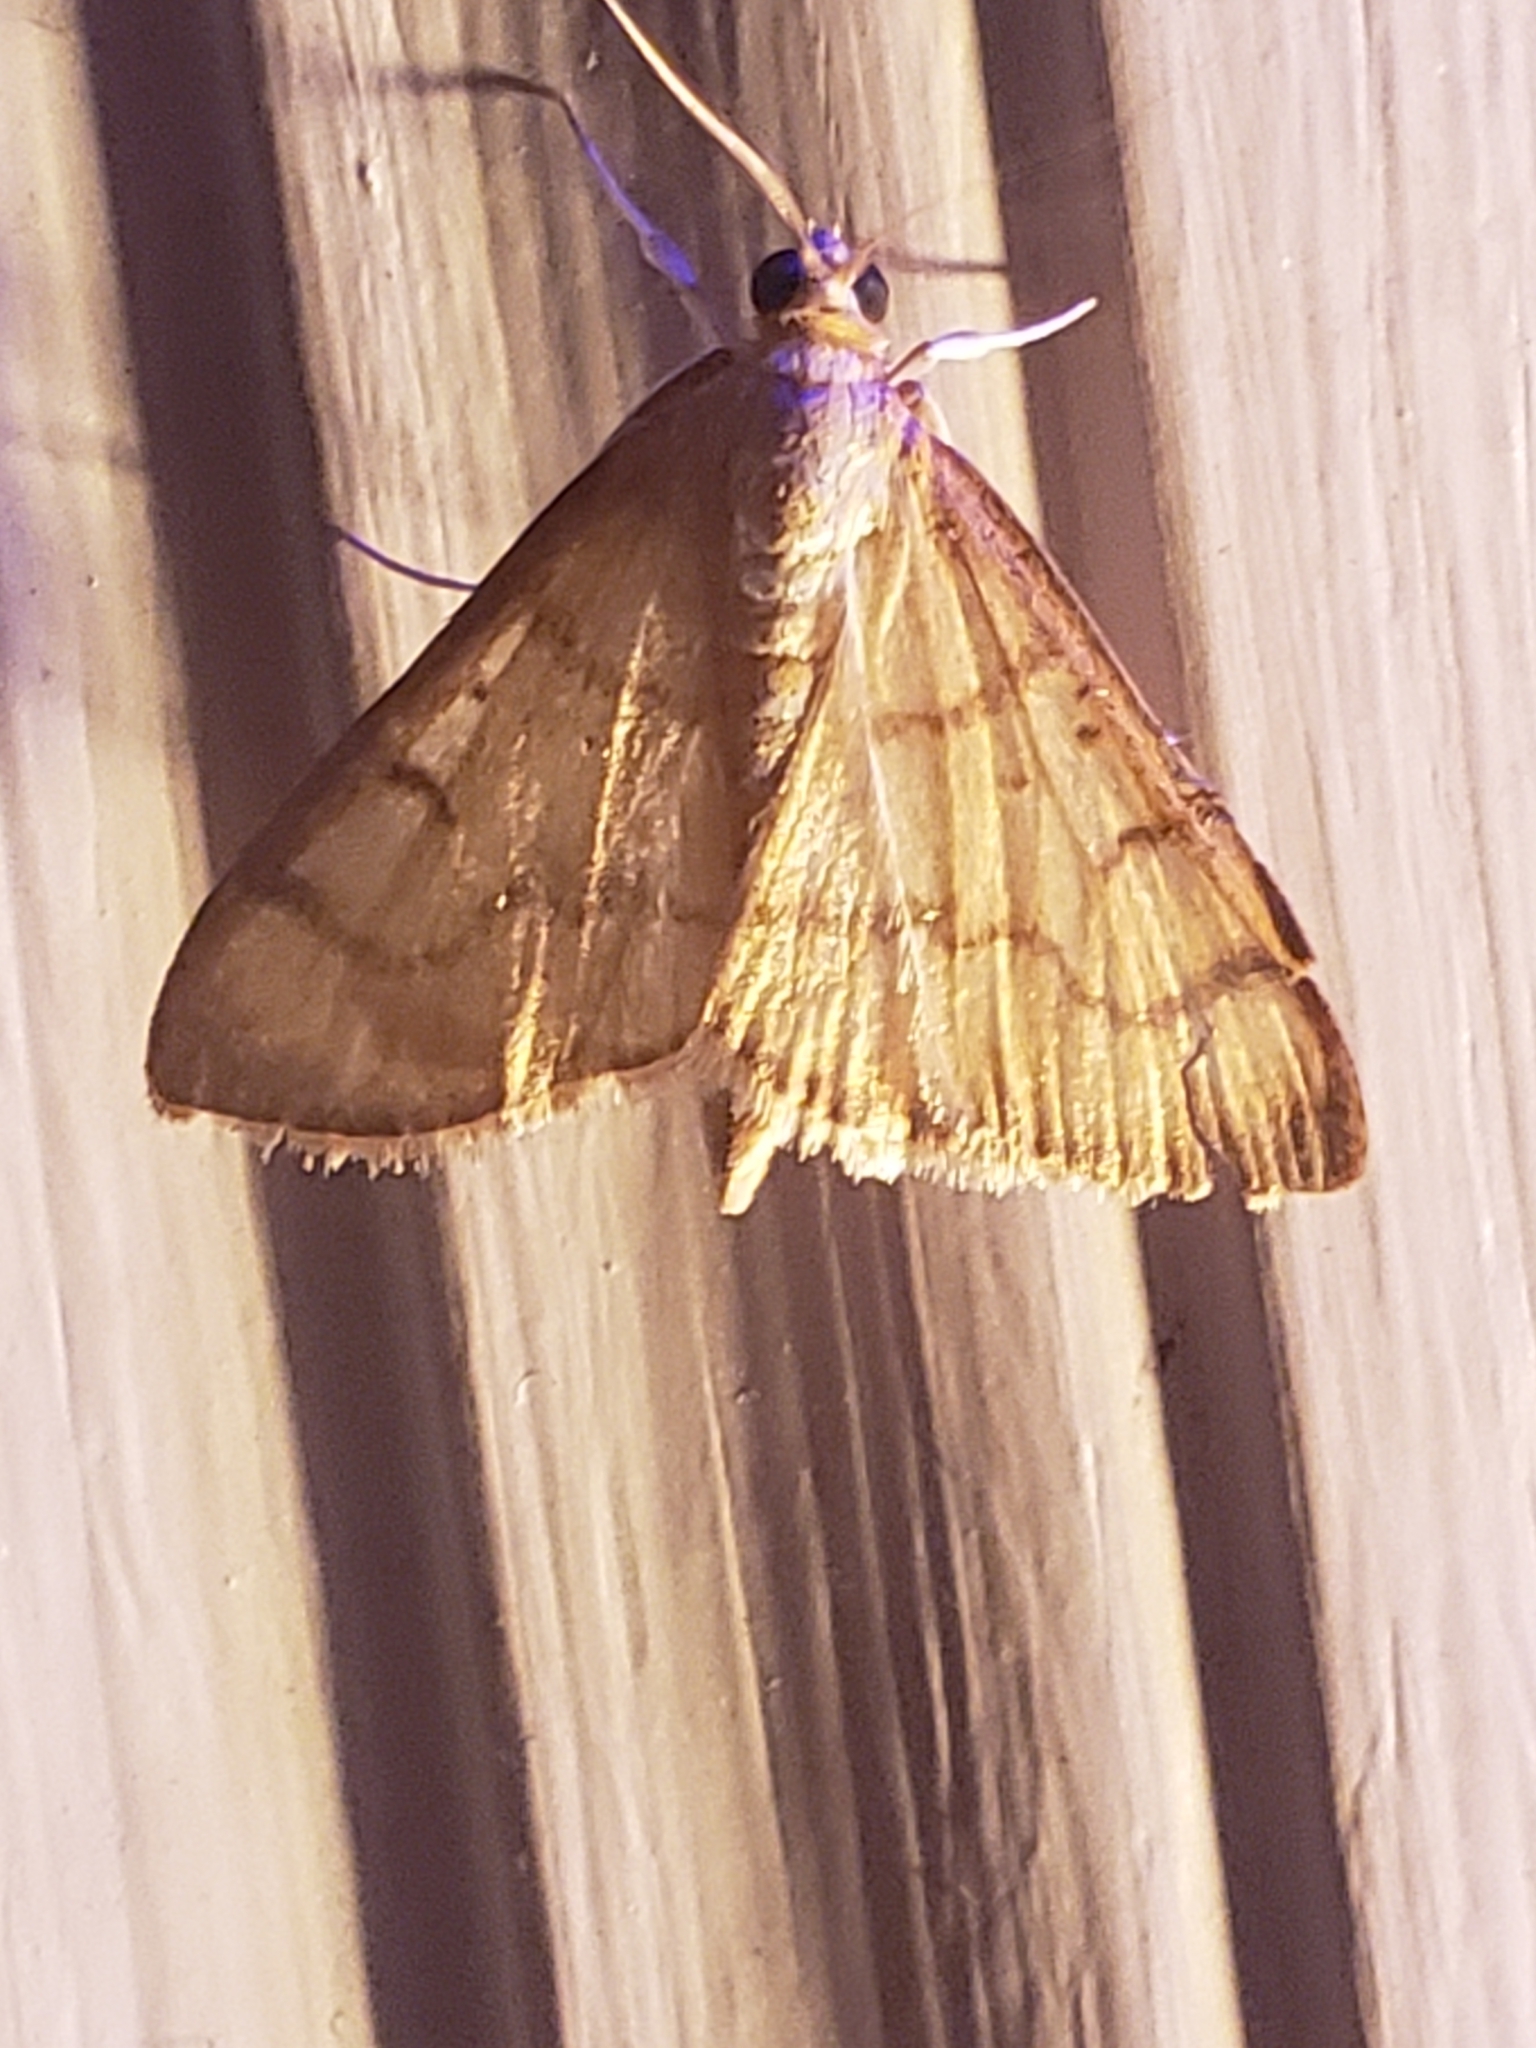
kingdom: Animalia
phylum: Arthropoda
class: Insecta
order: Lepidoptera
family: Crambidae
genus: Neohelvibotys
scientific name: Neohelvibotys neohelvialis
